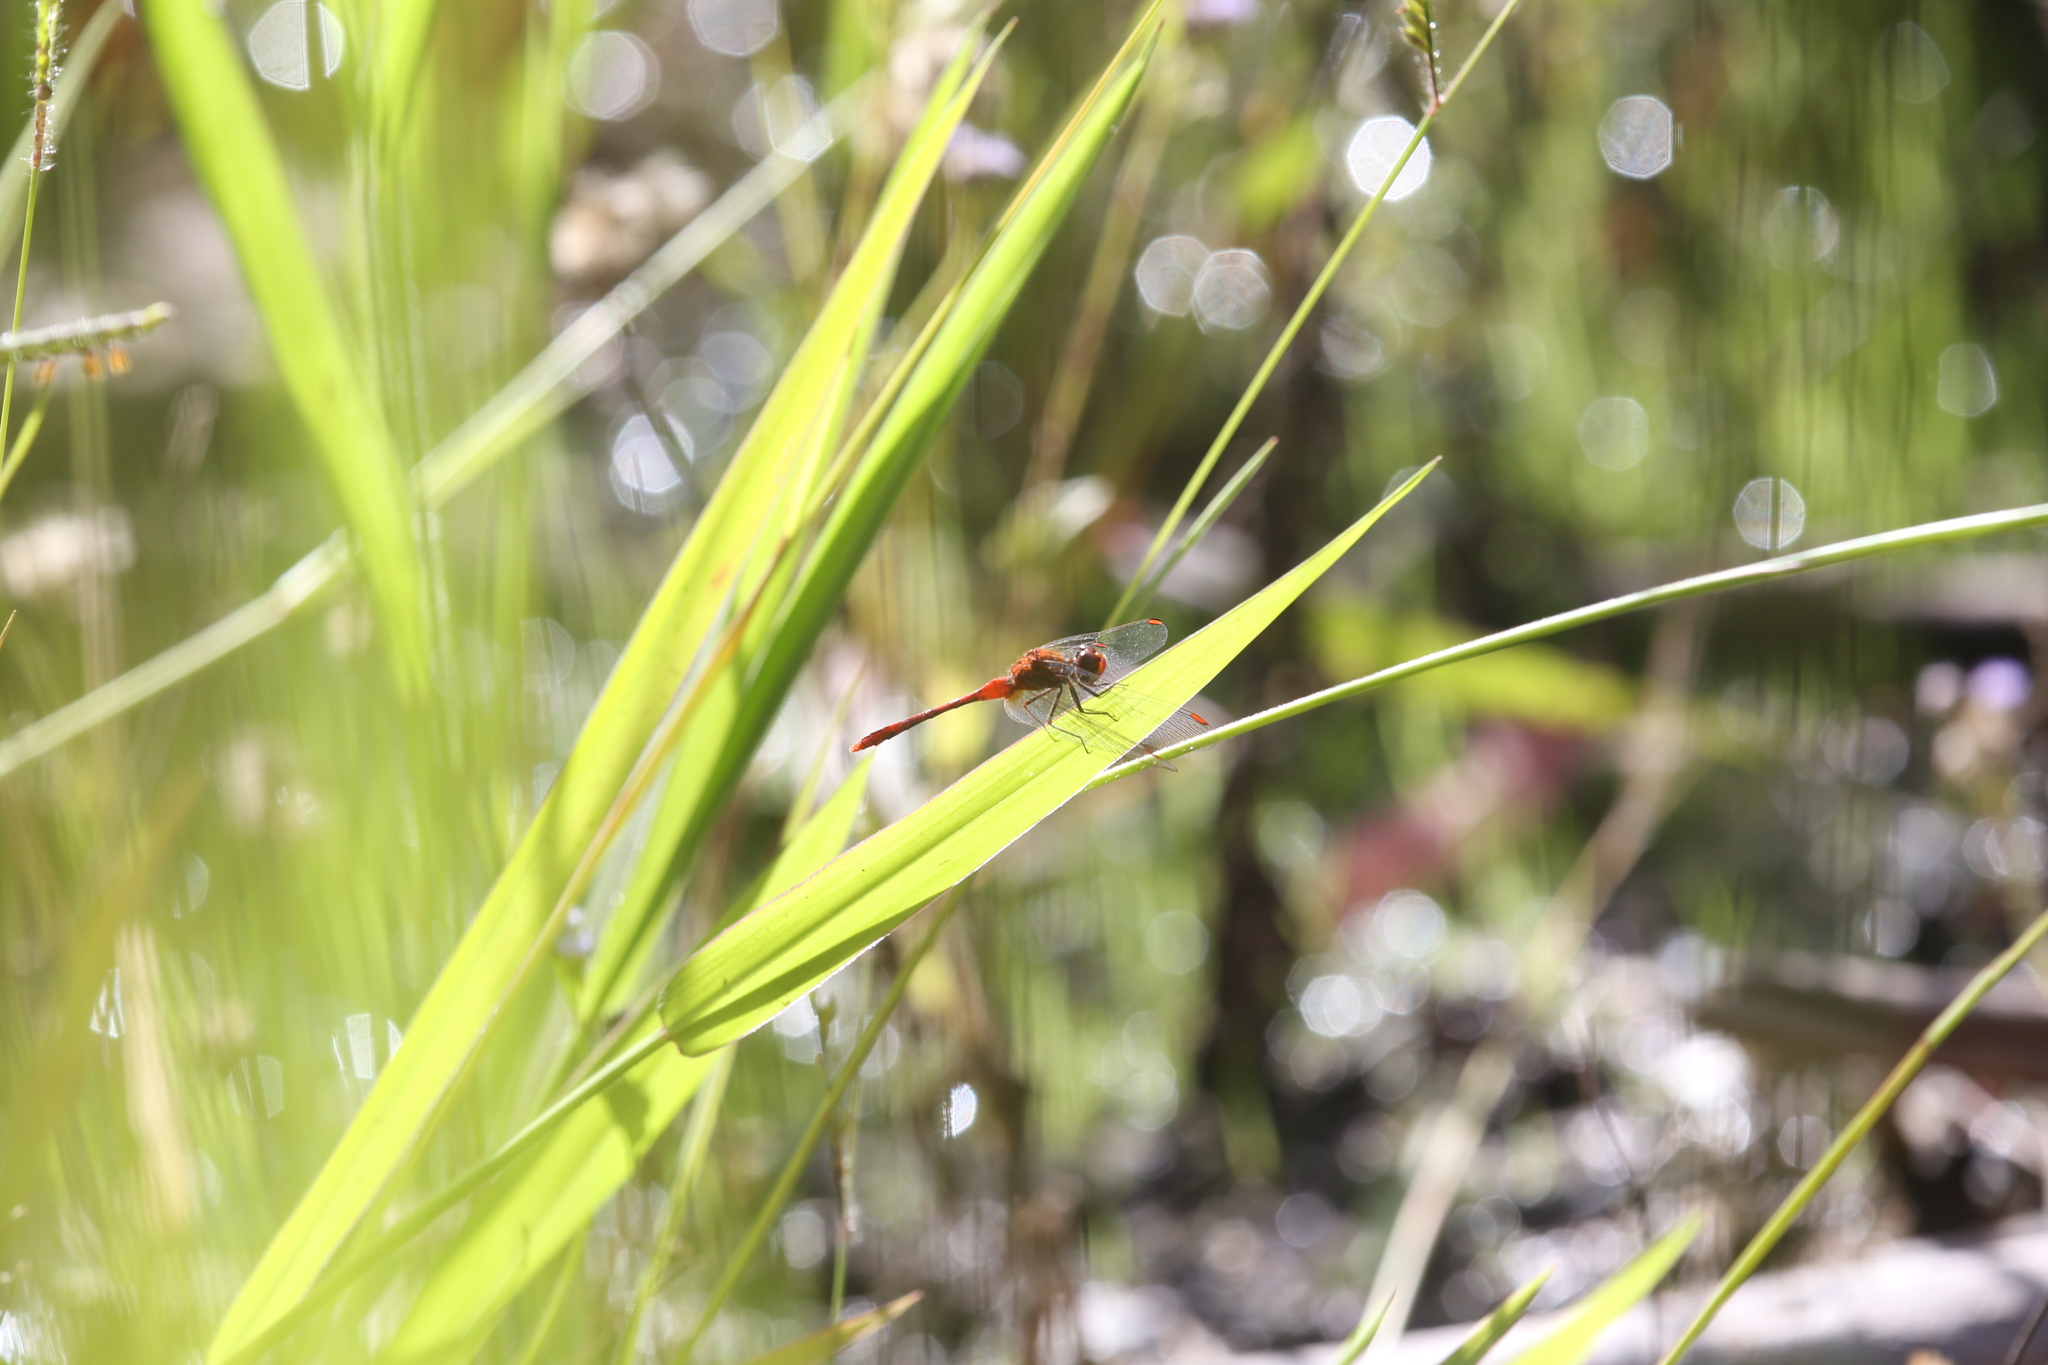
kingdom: Animalia
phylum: Arthropoda
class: Insecta
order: Odonata
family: Libellulidae
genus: Diplacodes
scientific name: Diplacodes bipunctata
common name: Red percher dragonfly
